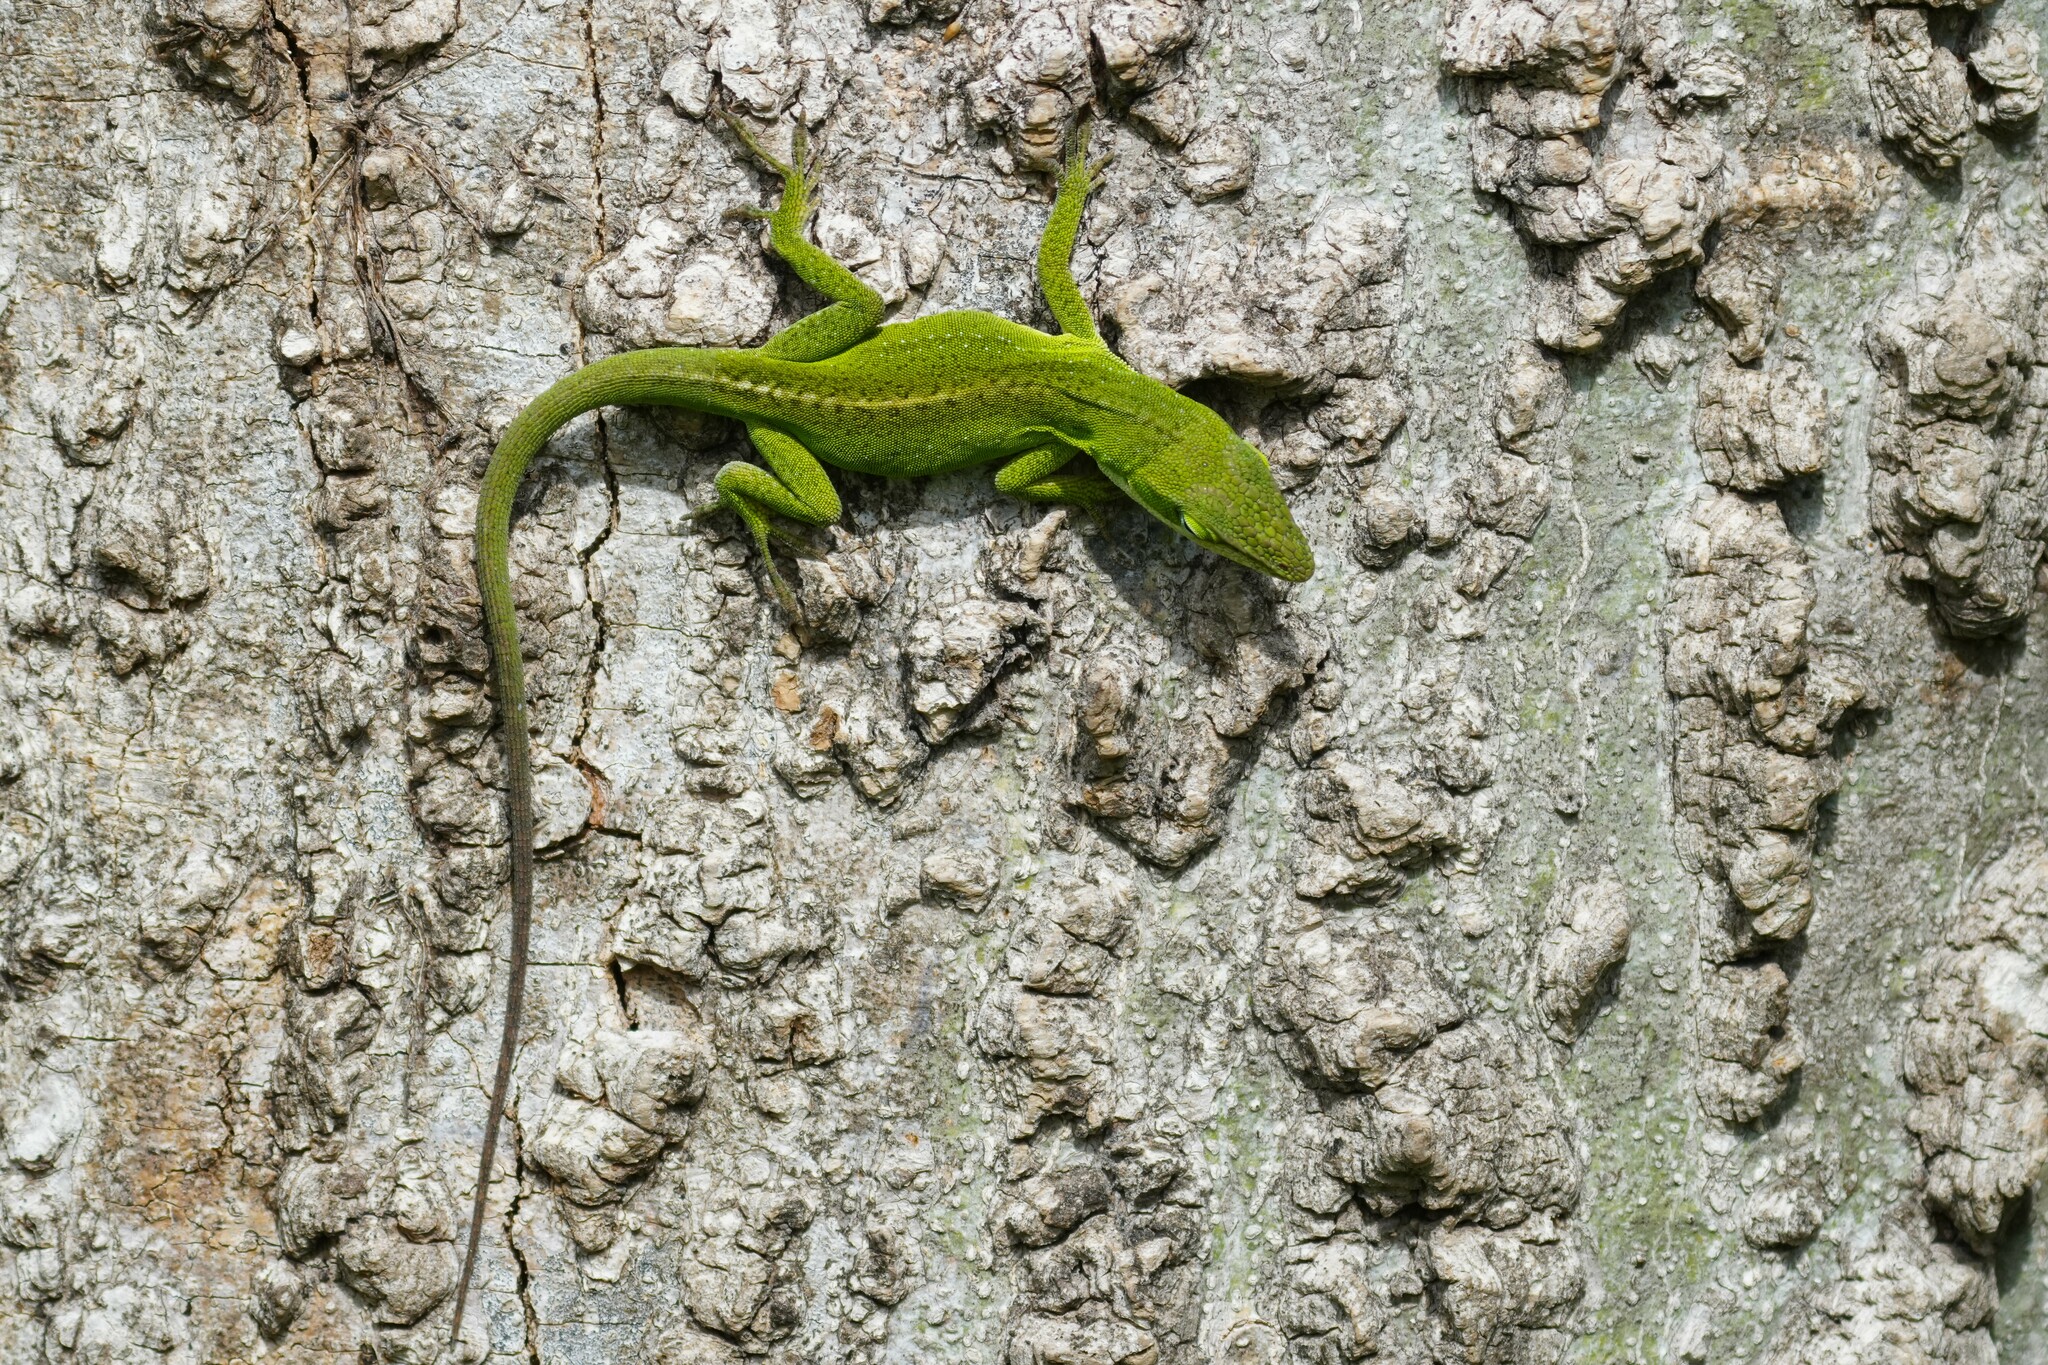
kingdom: Animalia
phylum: Chordata
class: Squamata
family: Dactyloidae
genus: Anolis
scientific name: Anolis carolinensis
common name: Green anole
